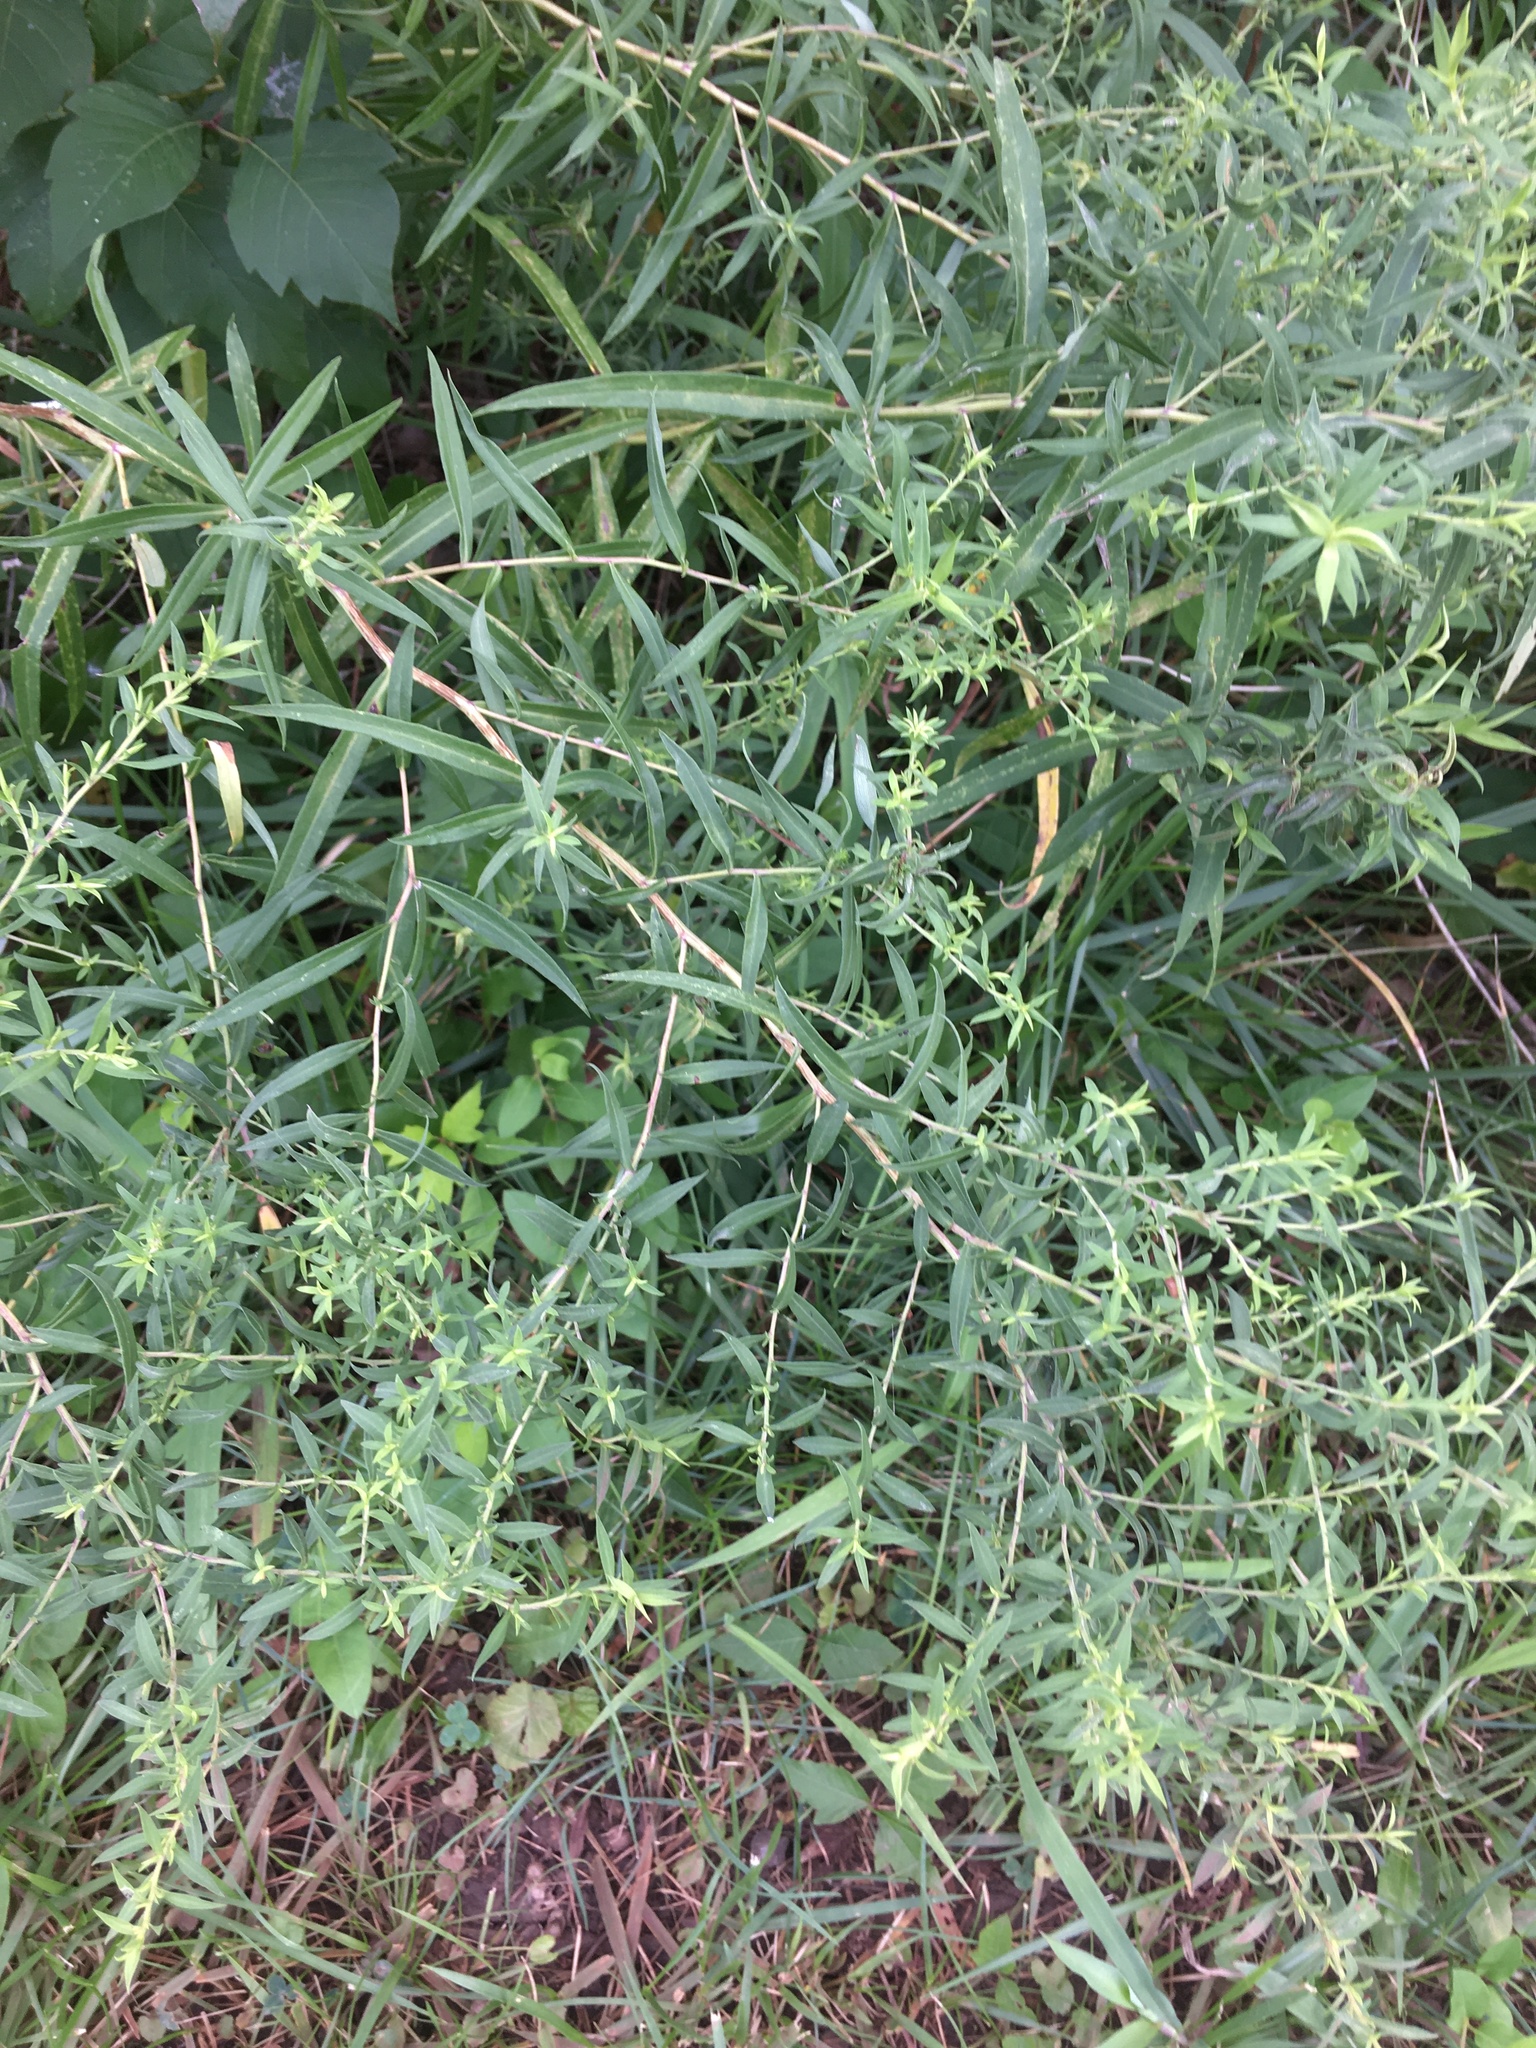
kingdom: Plantae
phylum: Tracheophyta
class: Magnoliopsida
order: Caryophyllales
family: Amaranthaceae
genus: Bassia
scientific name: Bassia scoparia
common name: Belvedere
